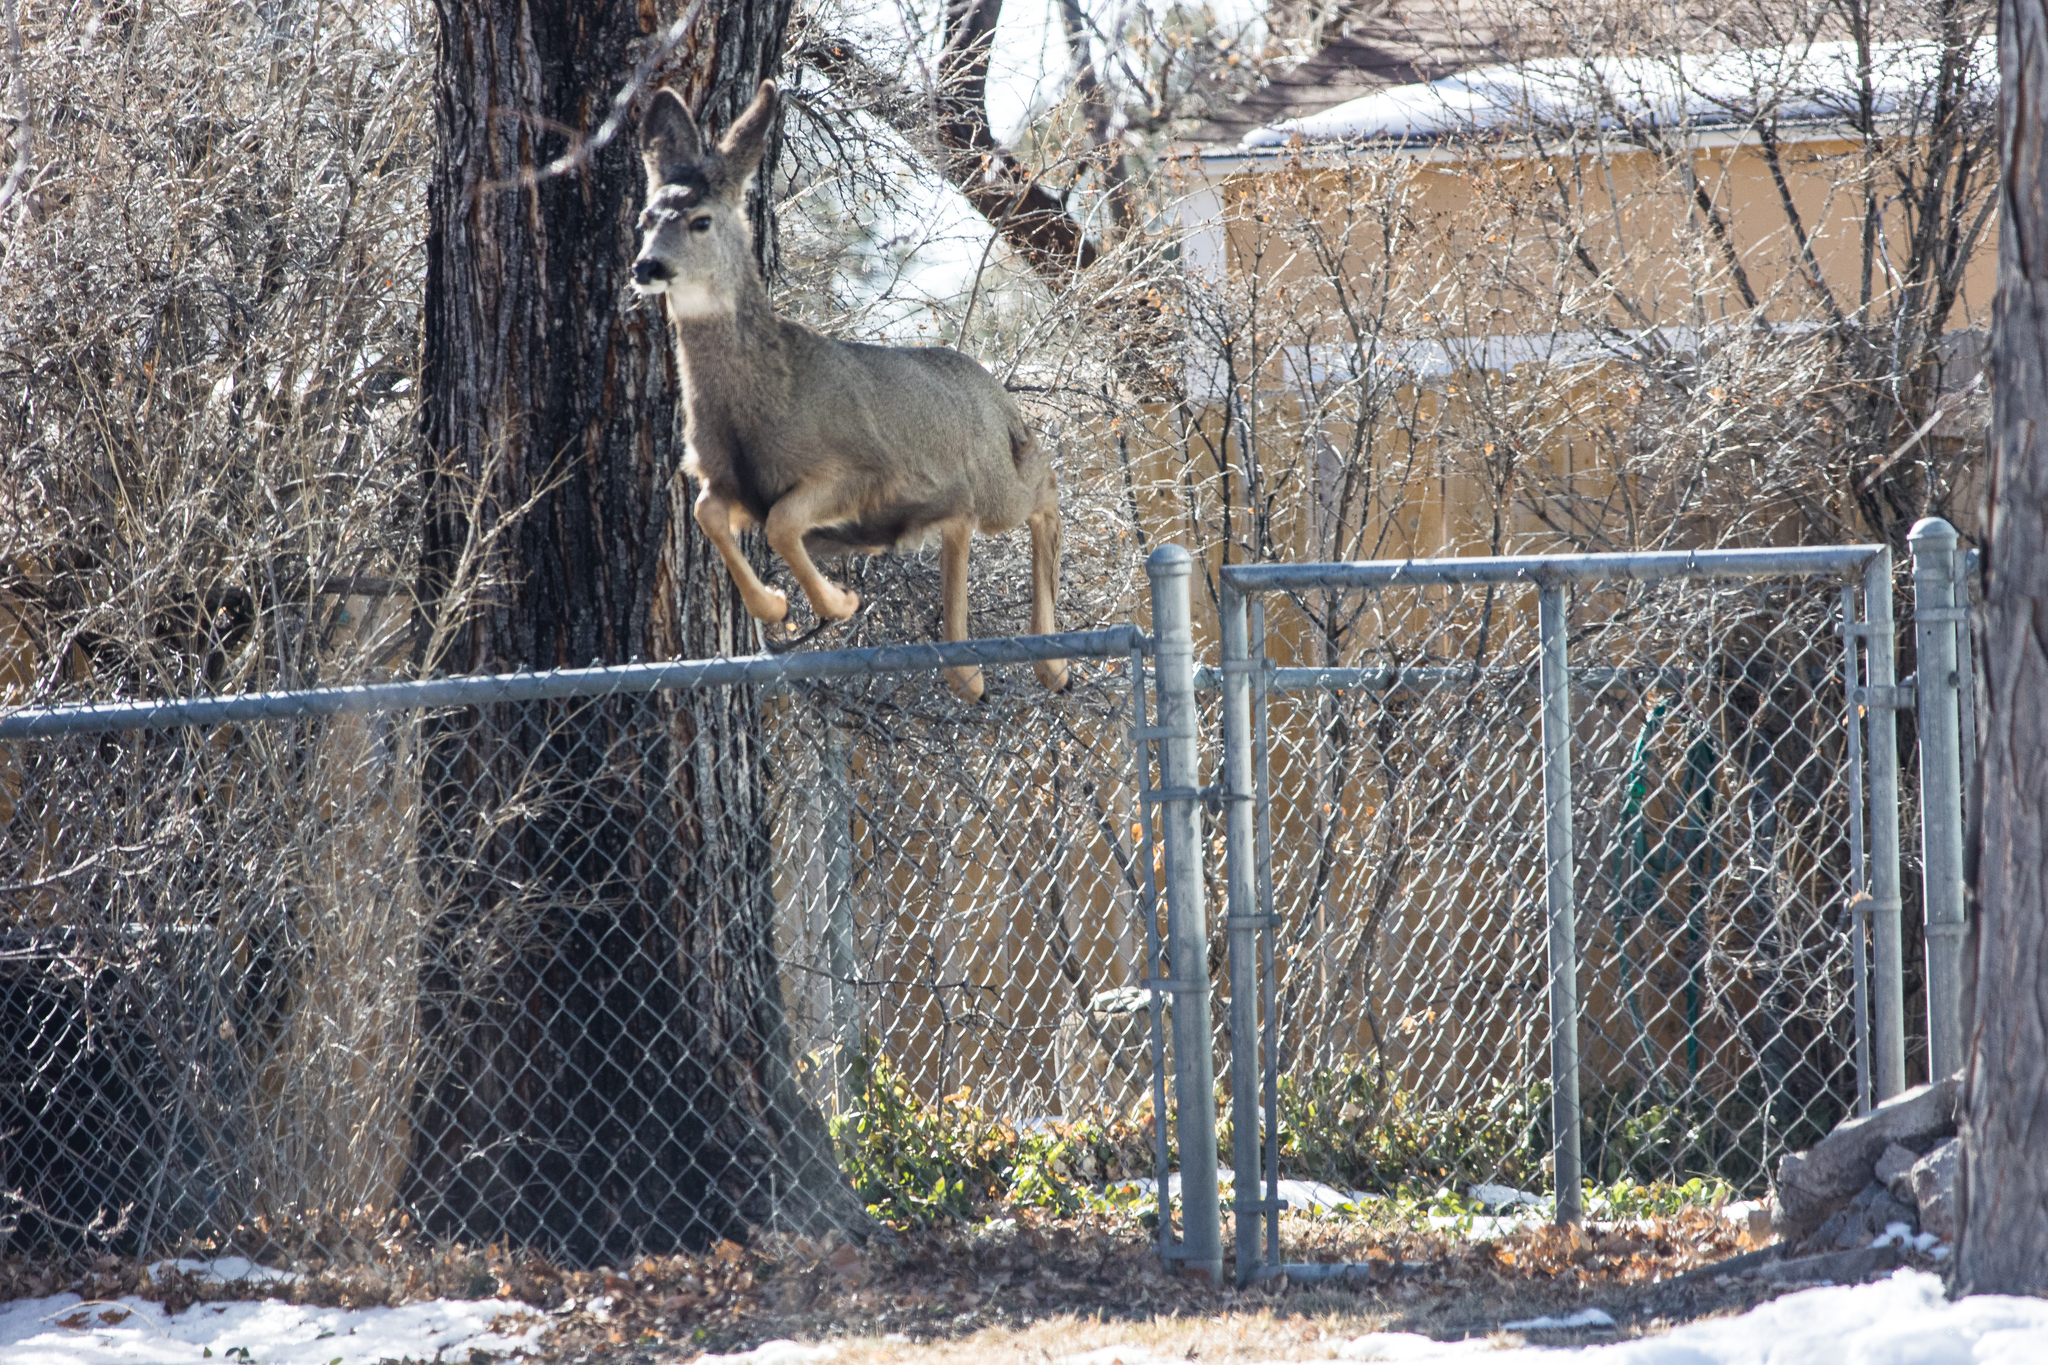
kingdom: Animalia
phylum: Chordata
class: Mammalia
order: Artiodactyla
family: Cervidae
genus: Odocoileus
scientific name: Odocoileus hemionus
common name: Mule deer
